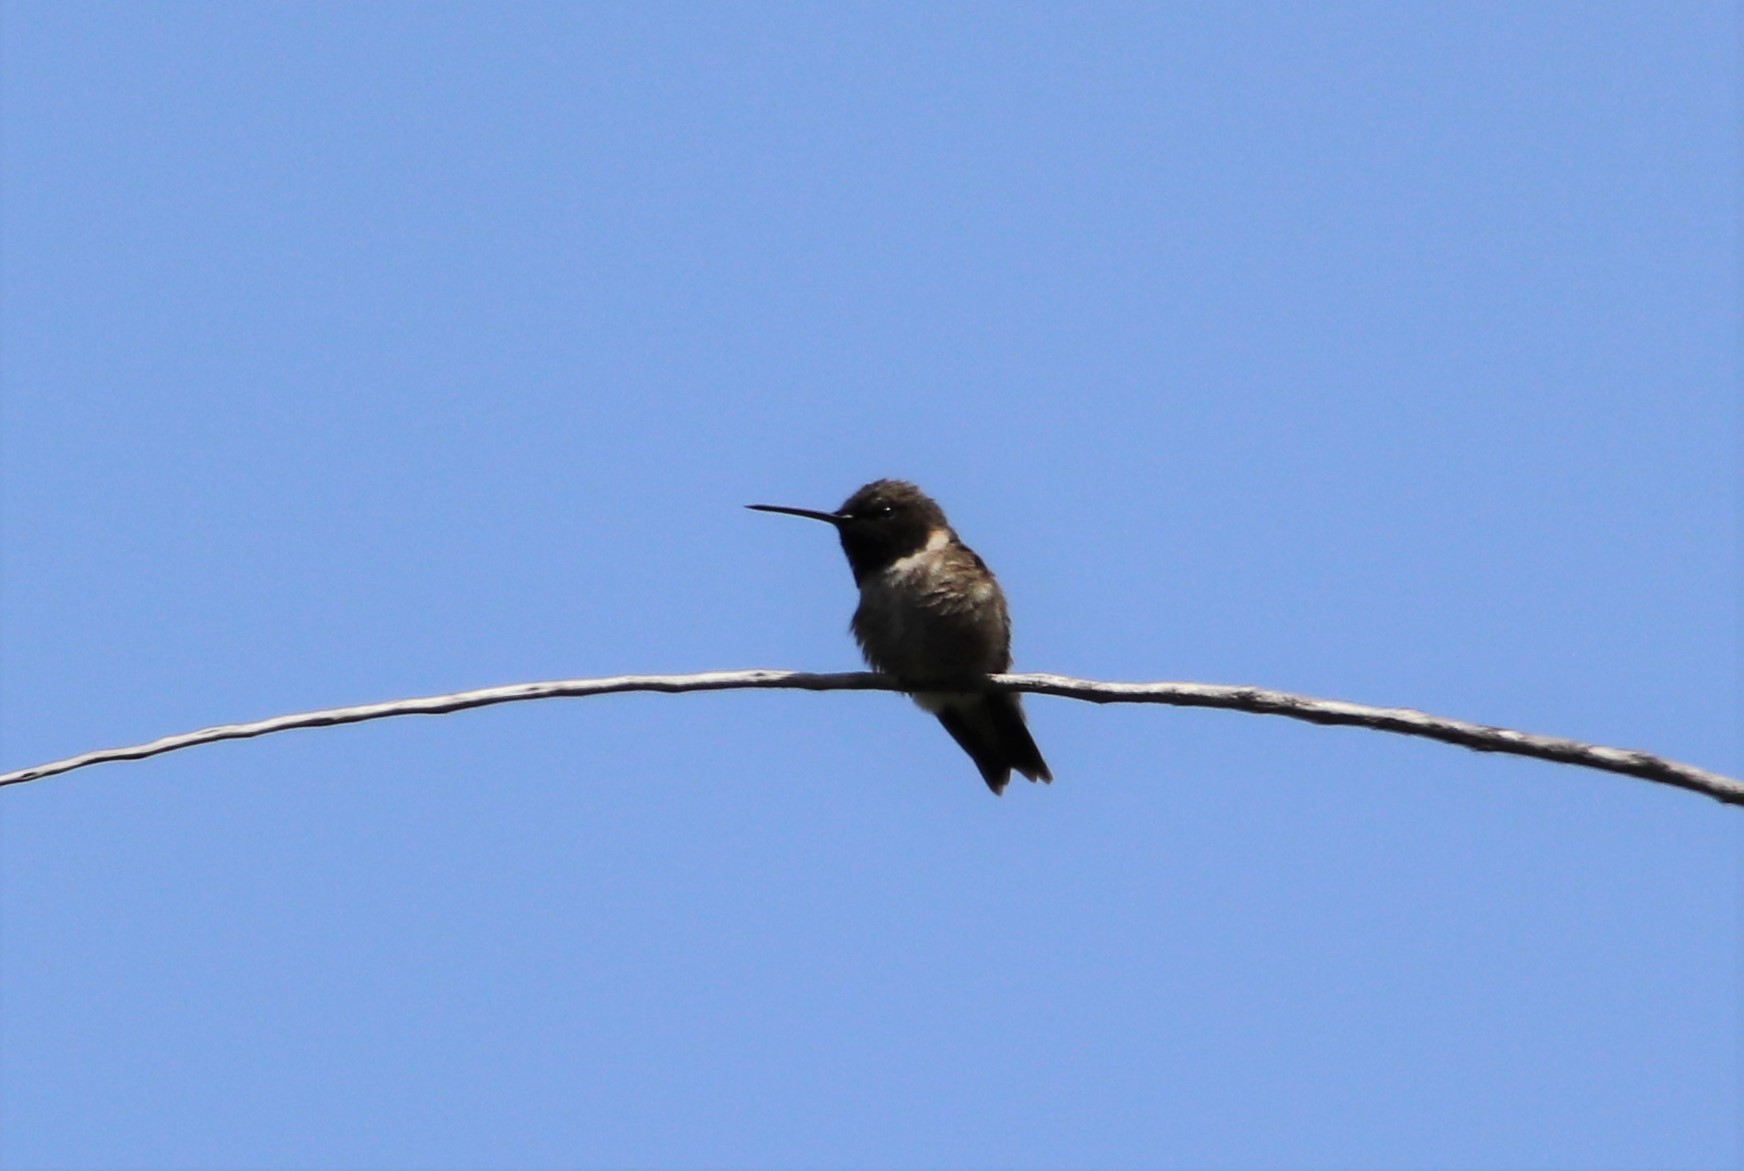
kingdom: Animalia
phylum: Chordata
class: Aves
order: Apodiformes
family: Trochilidae
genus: Archilochus
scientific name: Archilochus alexandri
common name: Black-chinned hummingbird
